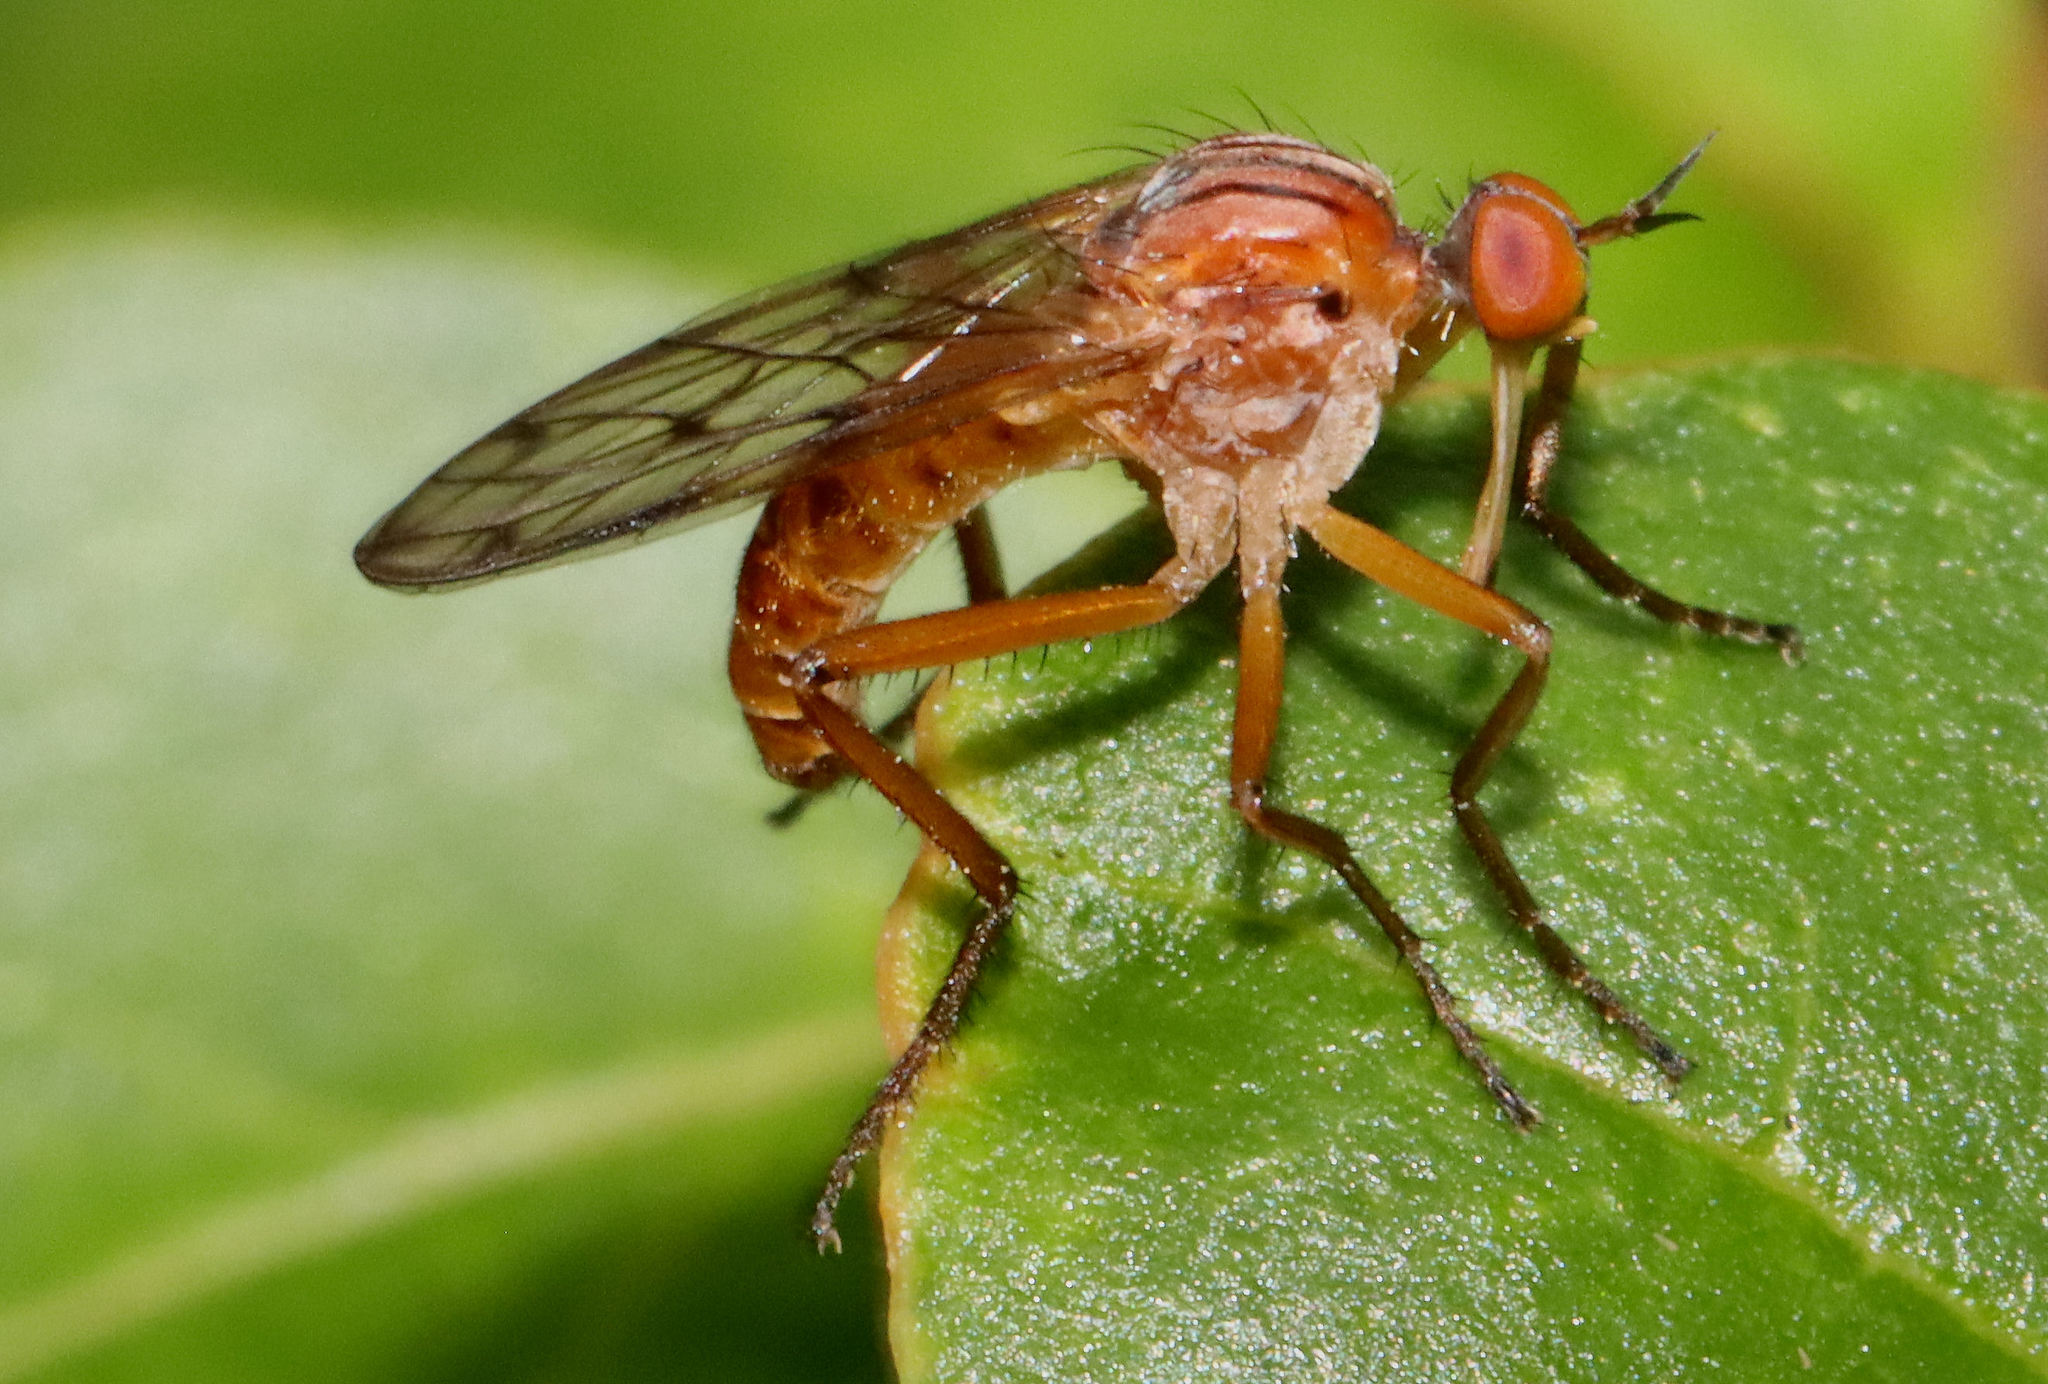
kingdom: Animalia
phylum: Arthropoda
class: Insecta
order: Diptera
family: Empididae
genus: Empis
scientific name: Empis tridentata
